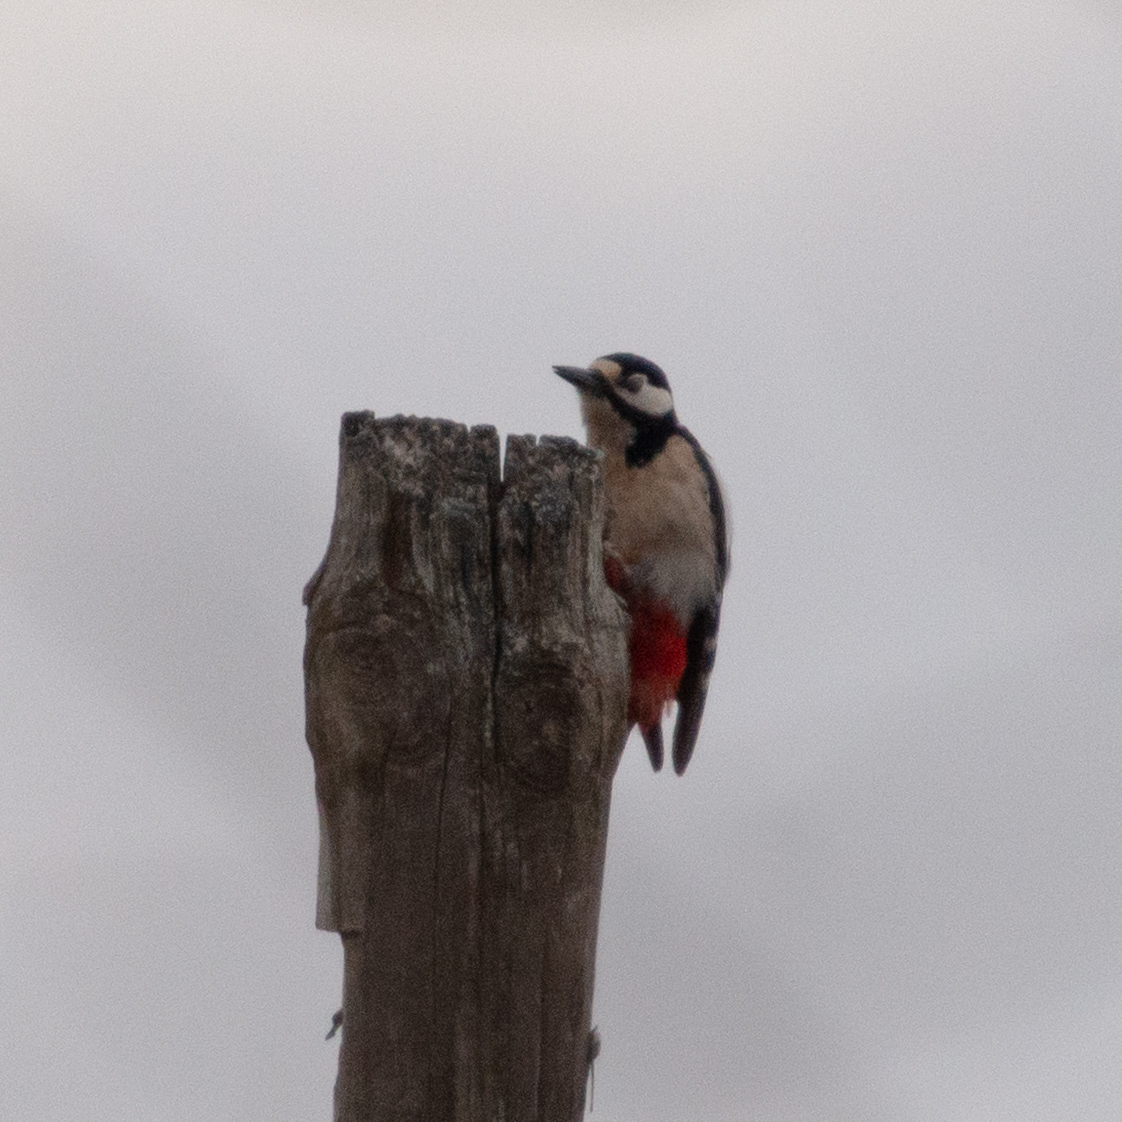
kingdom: Animalia
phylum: Chordata
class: Aves
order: Piciformes
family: Picidae
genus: Dendrocopos
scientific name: Dendrocopos major
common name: Great spotted woodpecker
